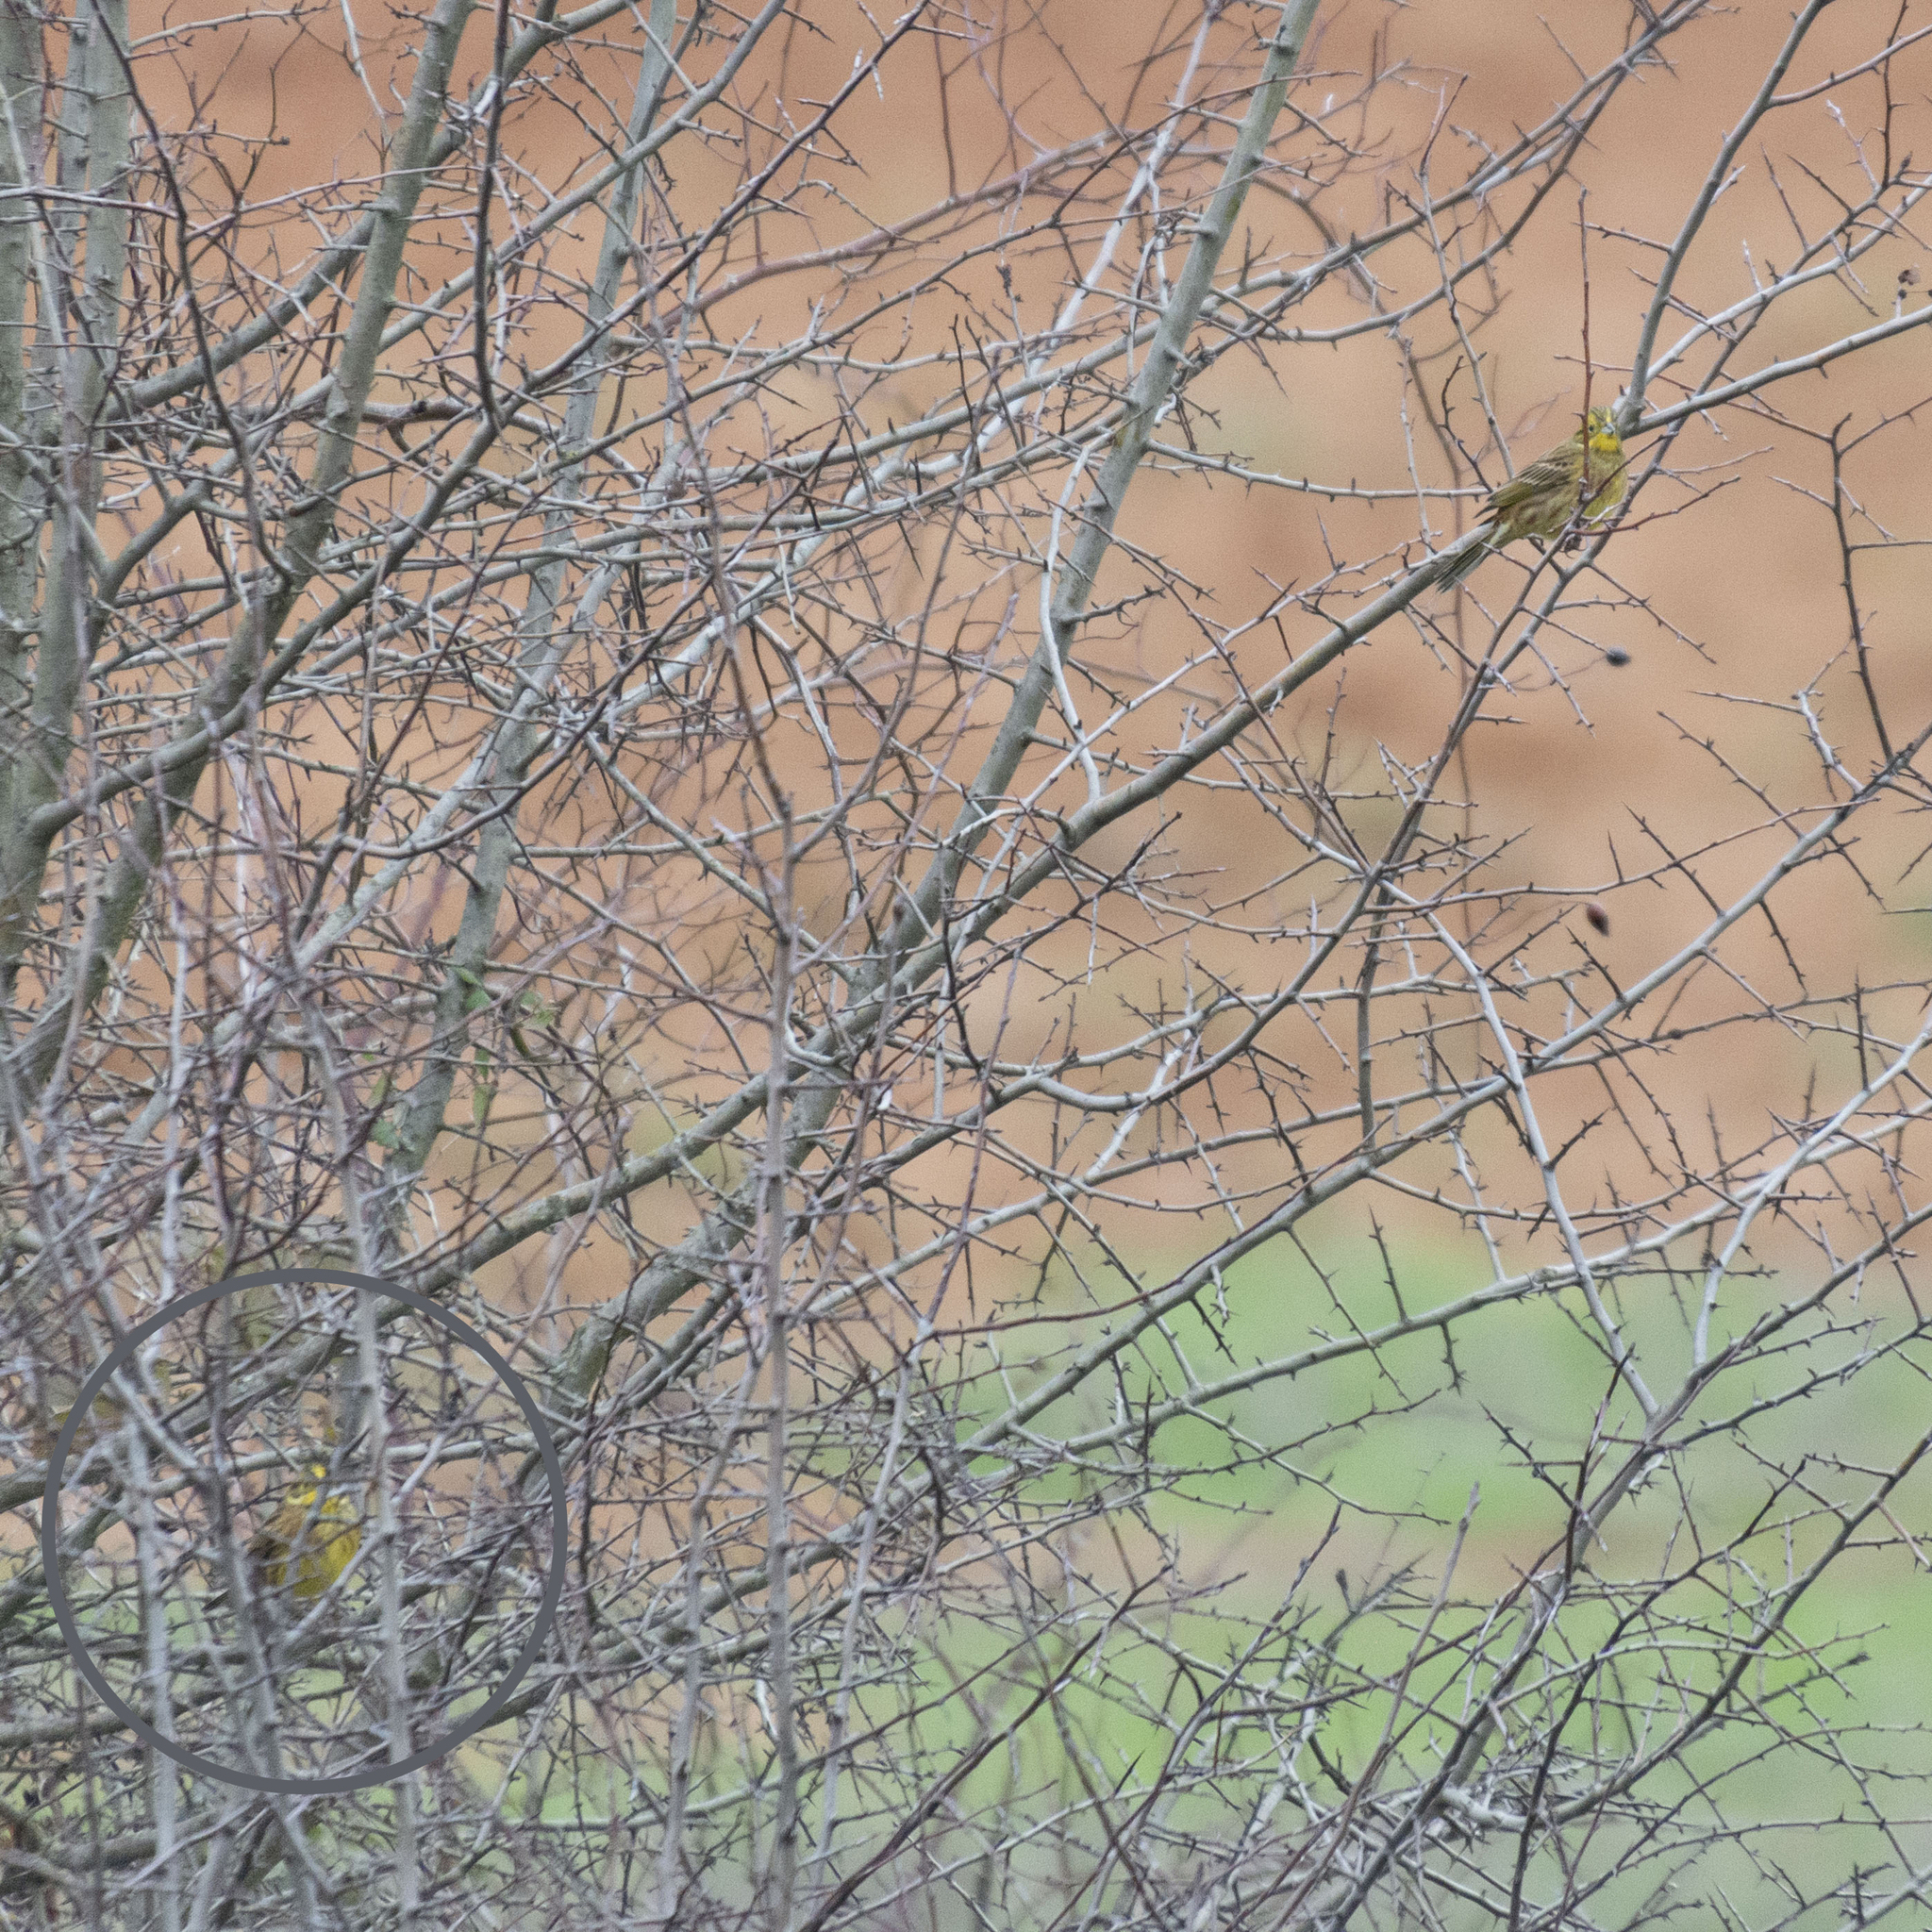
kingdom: Animalia
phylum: Chordata
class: Aves
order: Passeriformes
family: Emberizidae
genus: Emberiza
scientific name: Emberiza citrinella
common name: Yellowhammer
